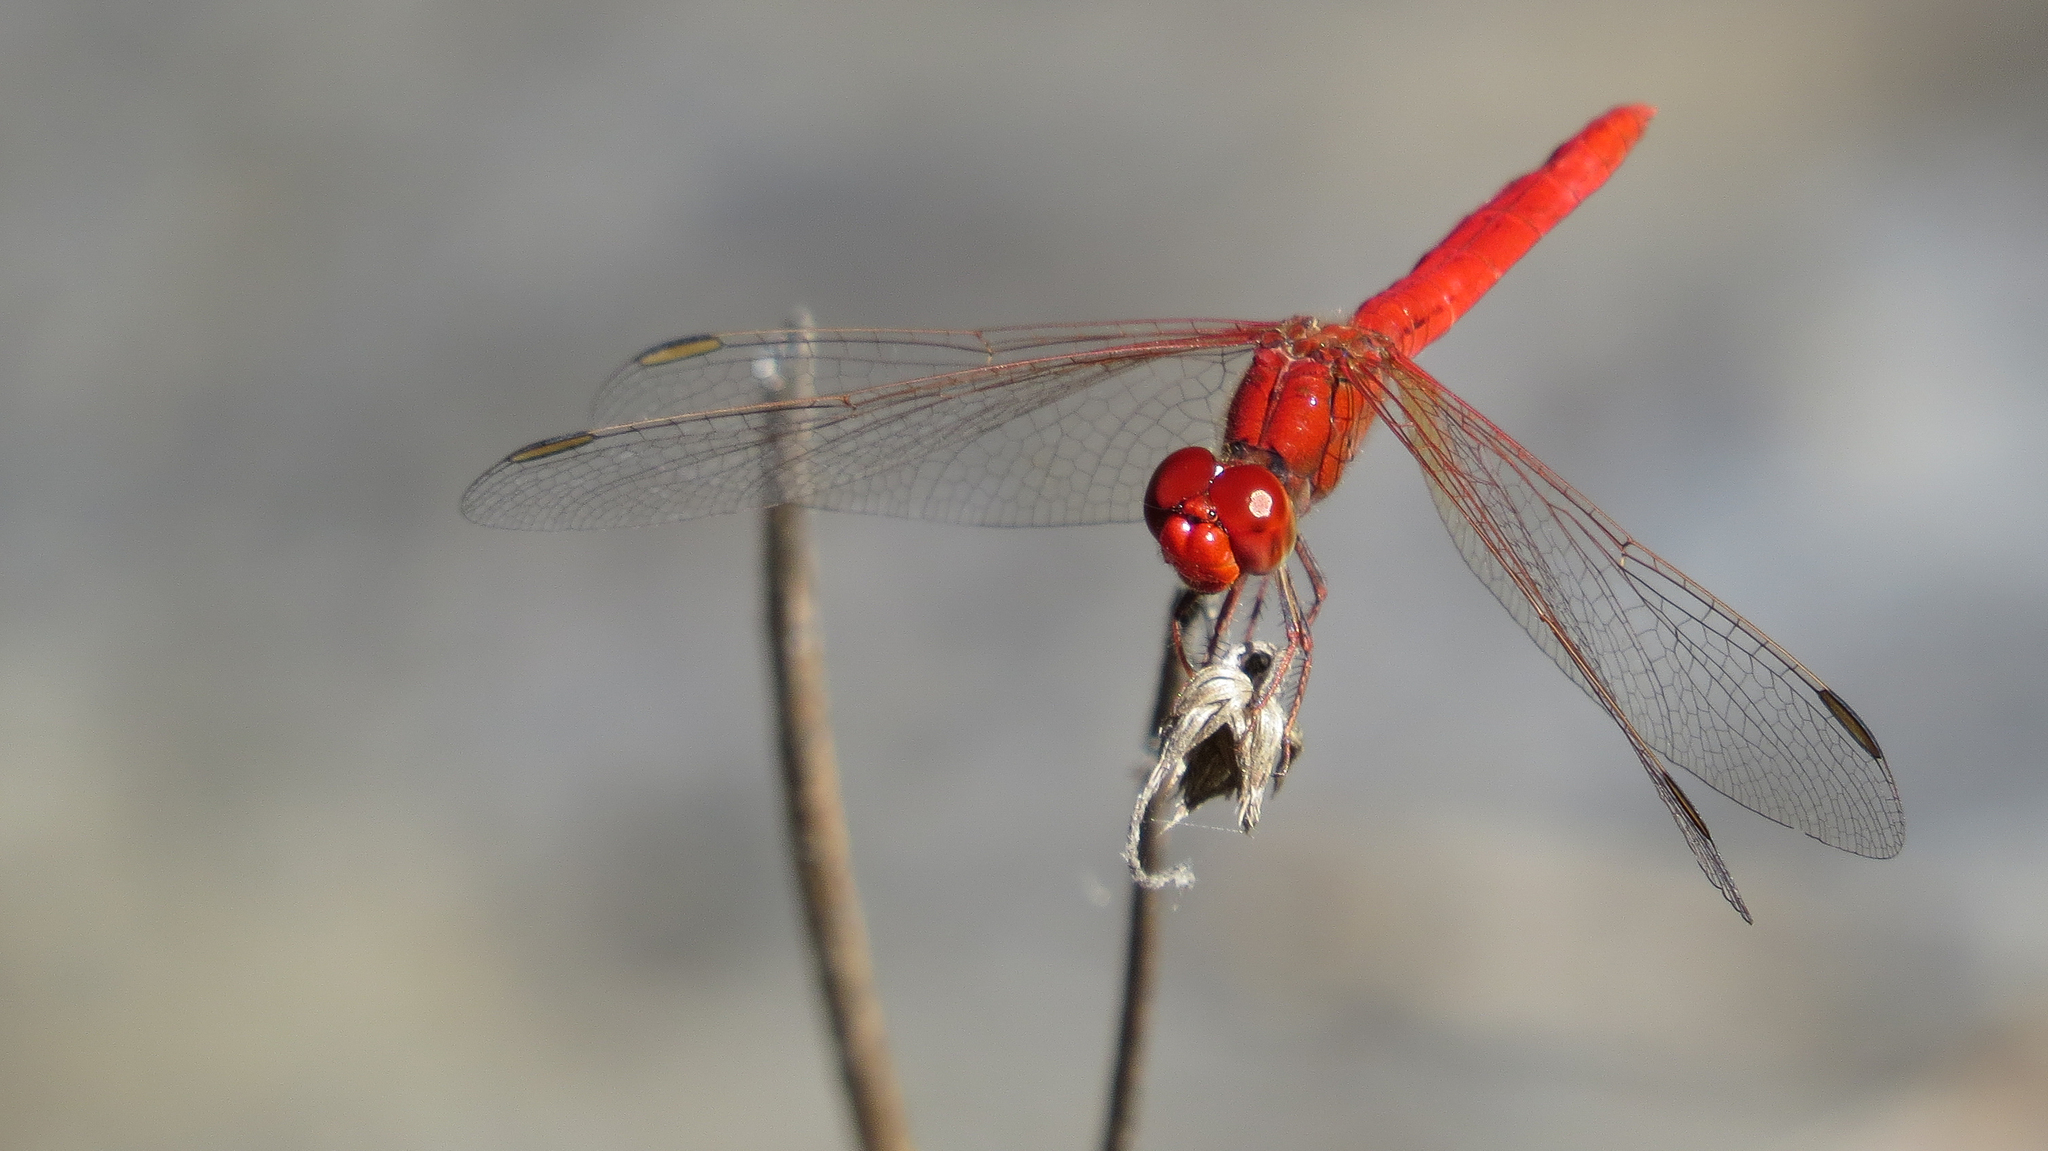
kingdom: Animalia
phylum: Arthropoda
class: Insecta
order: Odonata
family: Libellulidae
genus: Diplacodes
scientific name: Diplacodes haematodes
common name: Scarlet percher
